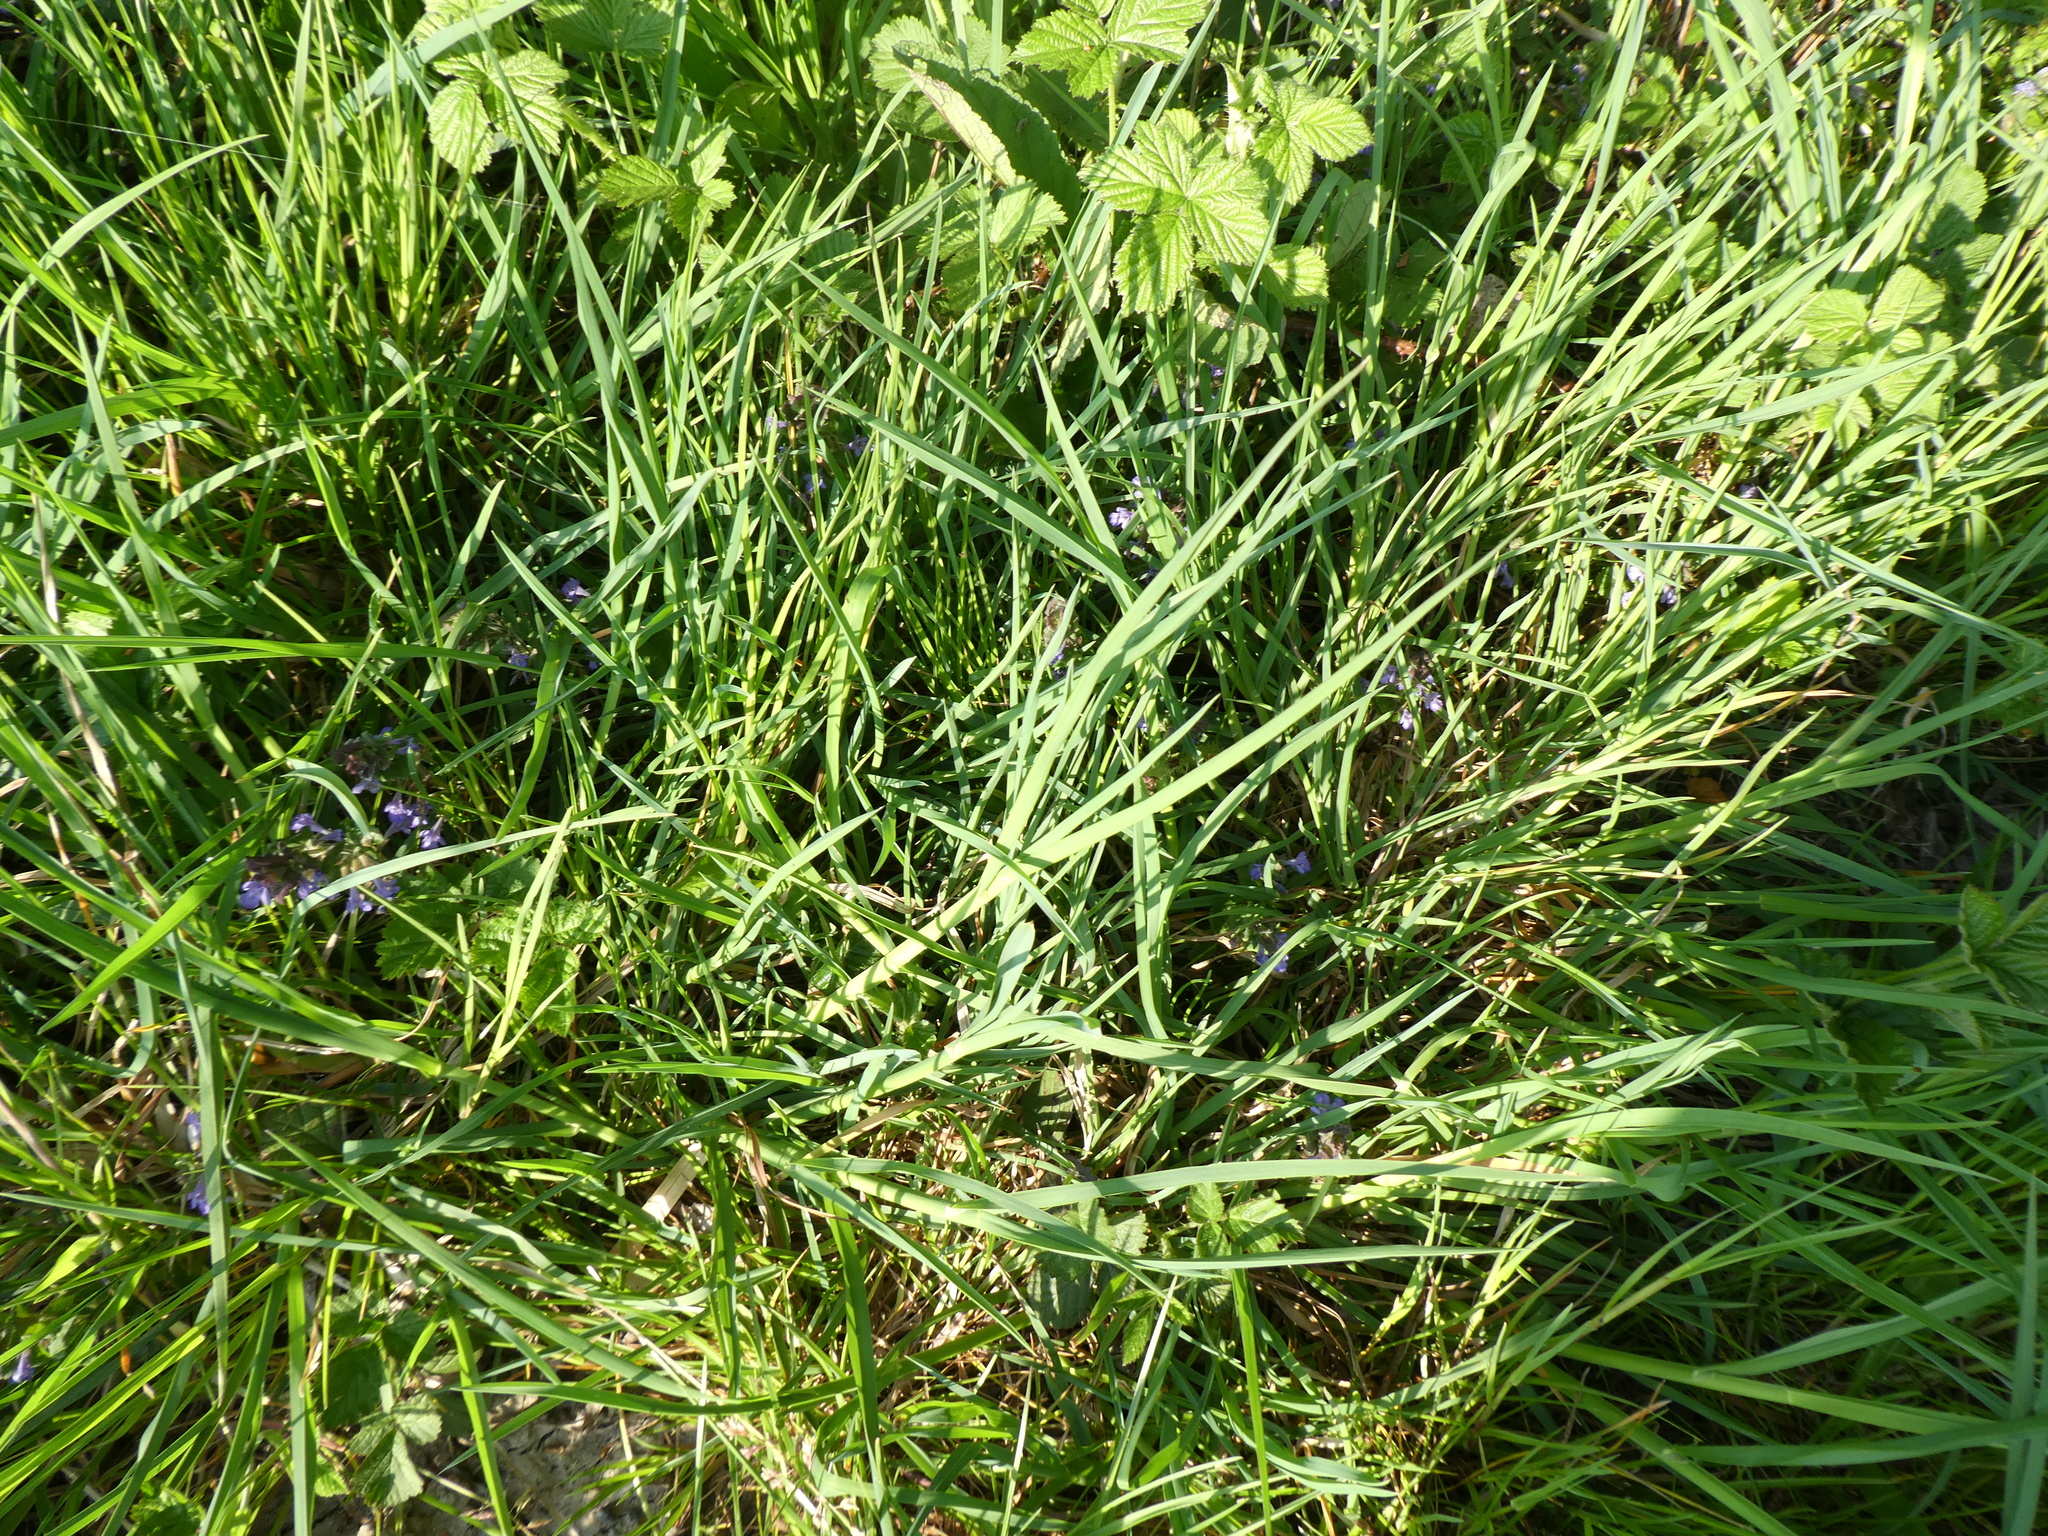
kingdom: Plantae
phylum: Tracheophyta
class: Magnoliopsida
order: Lamiales
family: Lamiaceae
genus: Glechoma
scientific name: Glechoma hederacea
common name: Ground ivy
